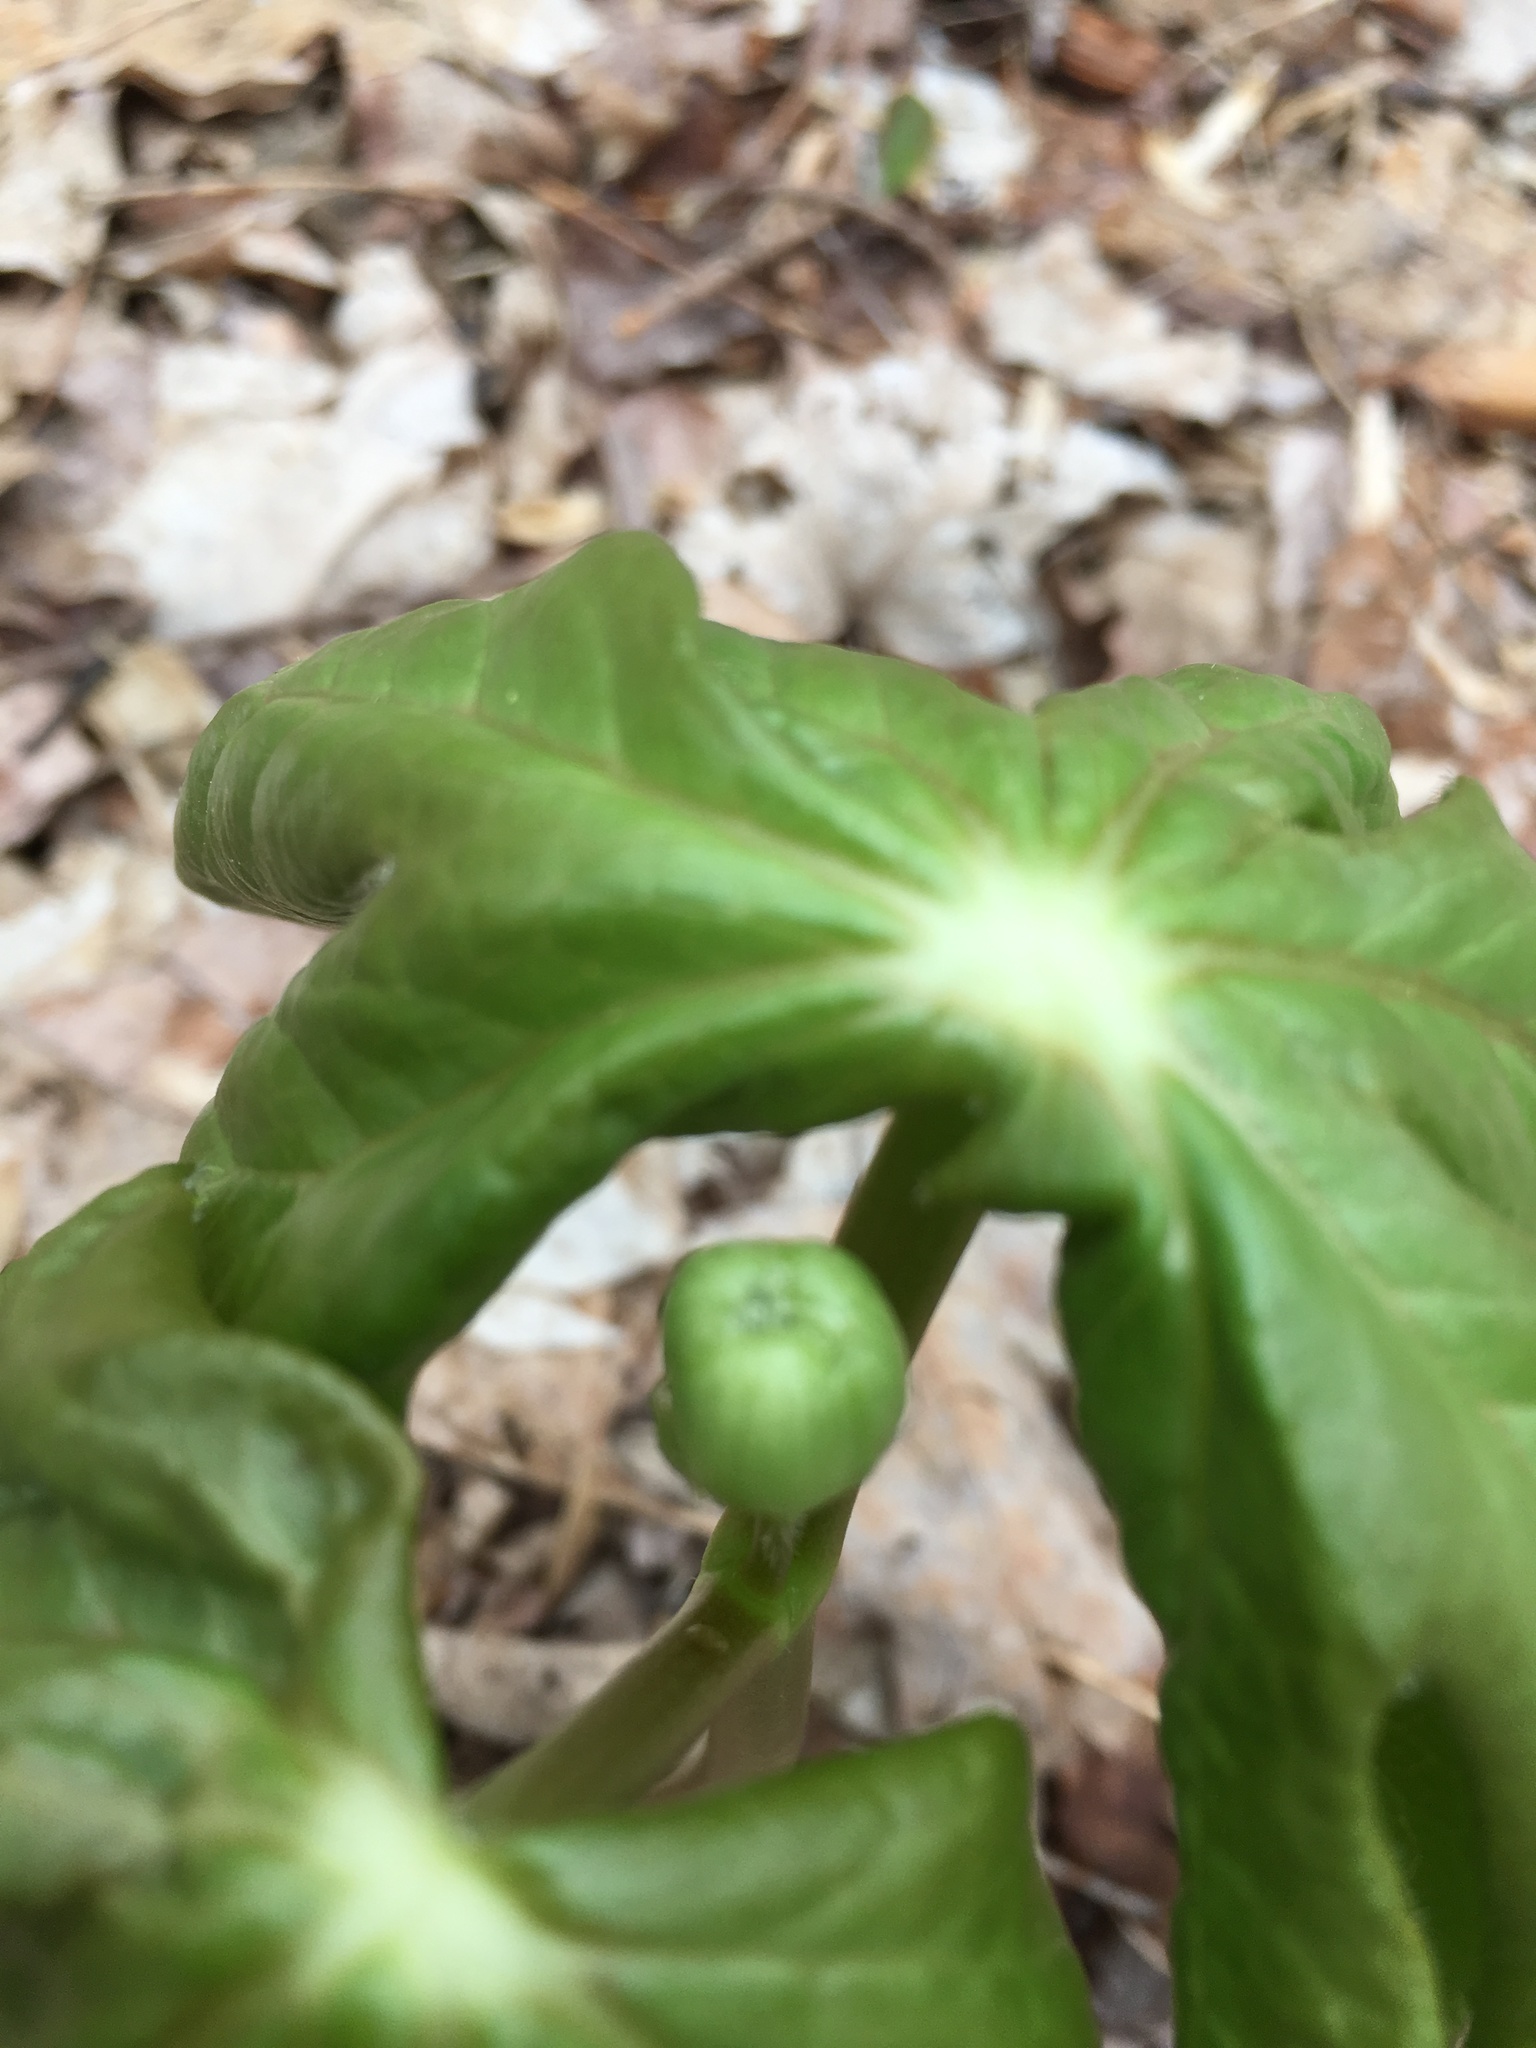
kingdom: Plantae
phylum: Tracheophyta
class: Magnoliopsida
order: Ranunculales
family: Berberidaceae
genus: Podophyllum
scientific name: Podophyllum peltatum
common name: Wild mandrake
